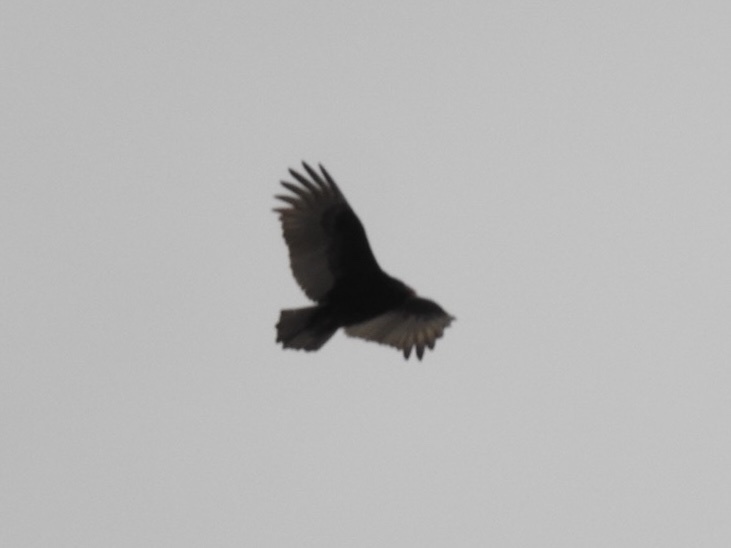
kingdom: Animalia
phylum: Chordata
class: Aves
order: Accipitriformes
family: Cathartidae
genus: Cathartes
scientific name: Cathartes aura
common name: Turkey vulture
